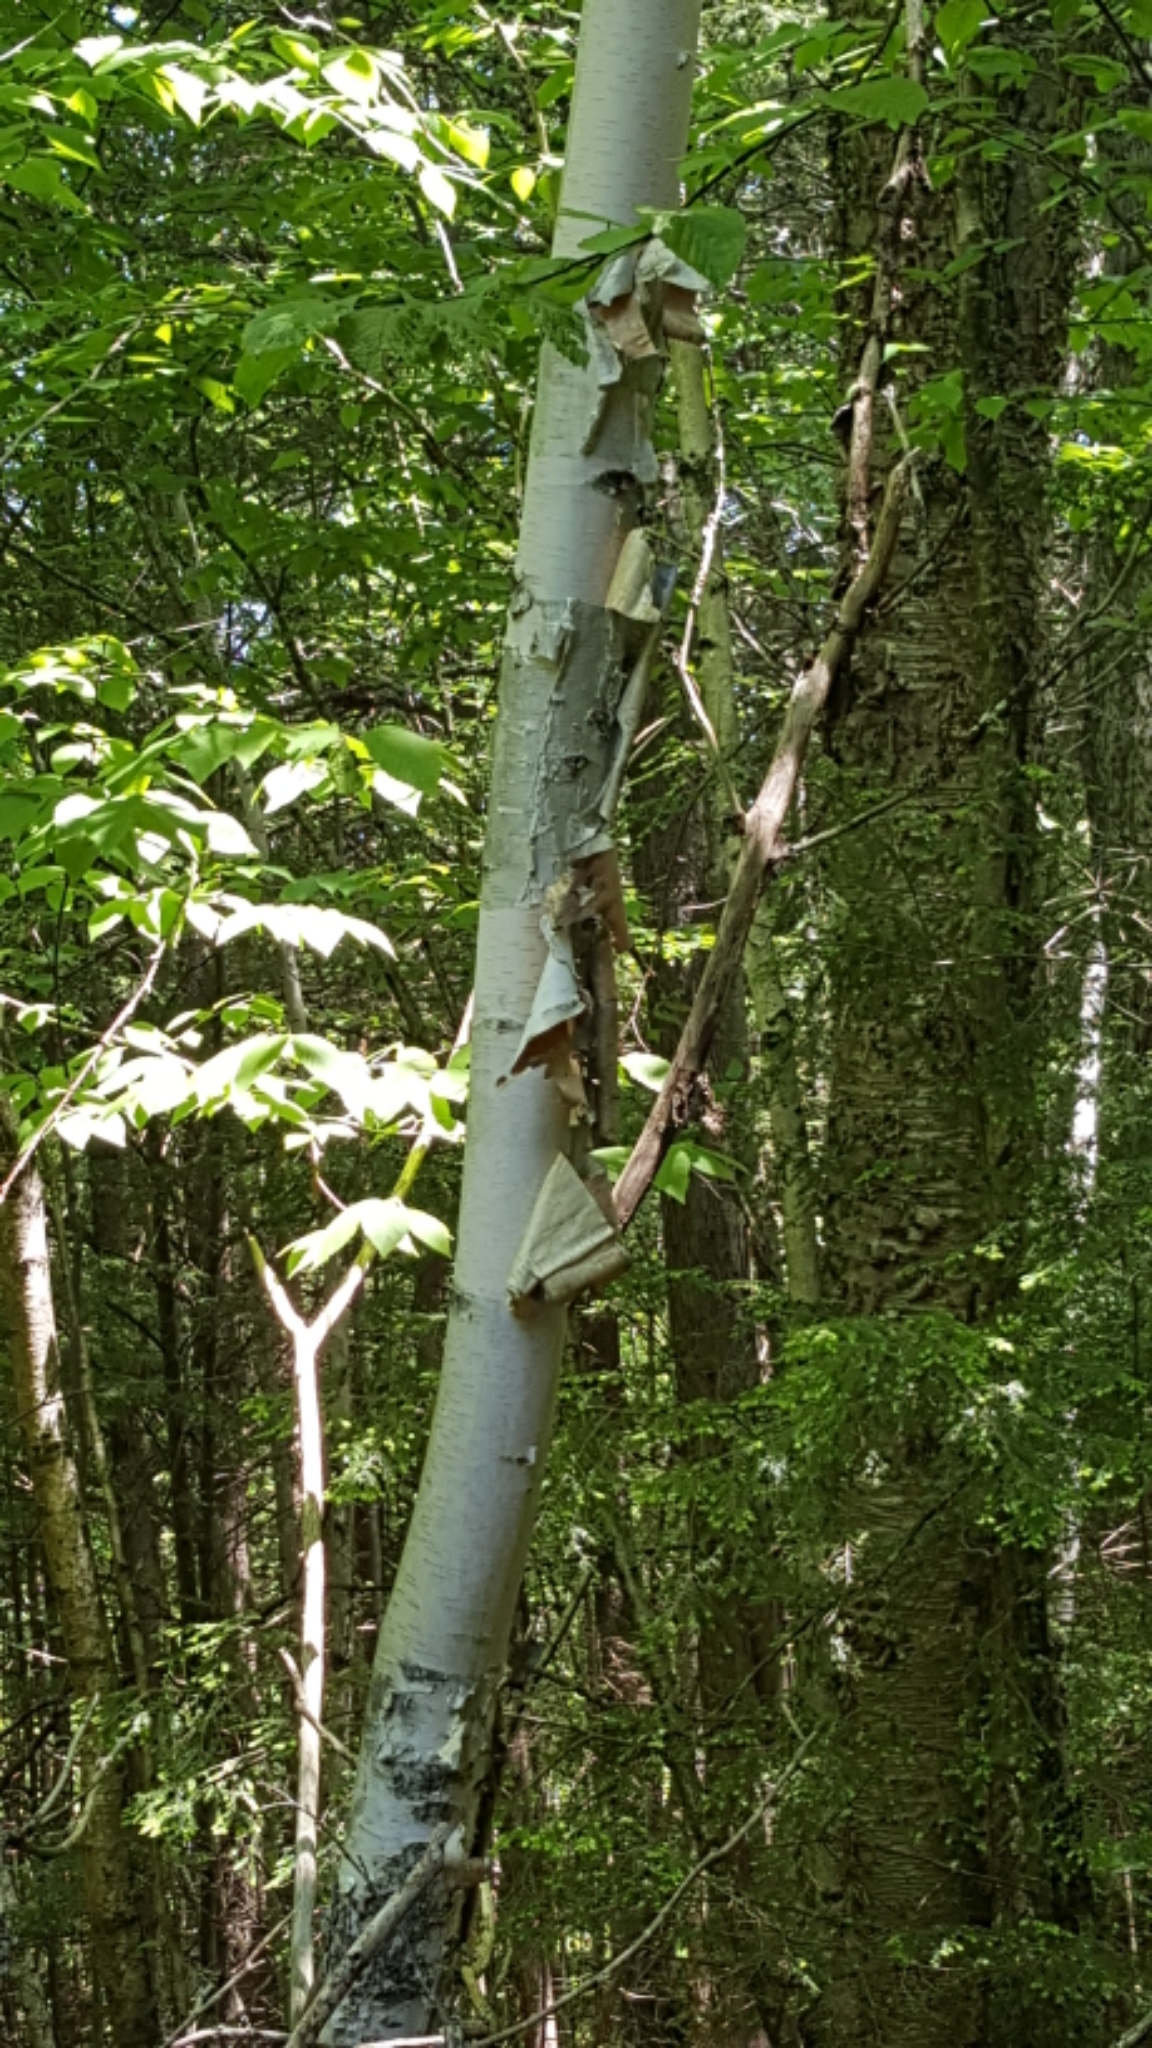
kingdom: Plantae
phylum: Tracheophyta
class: Magnoliopsida
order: Fagales
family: Betulaceae
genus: Betula
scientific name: Betula papyrifera
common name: Paper birch
